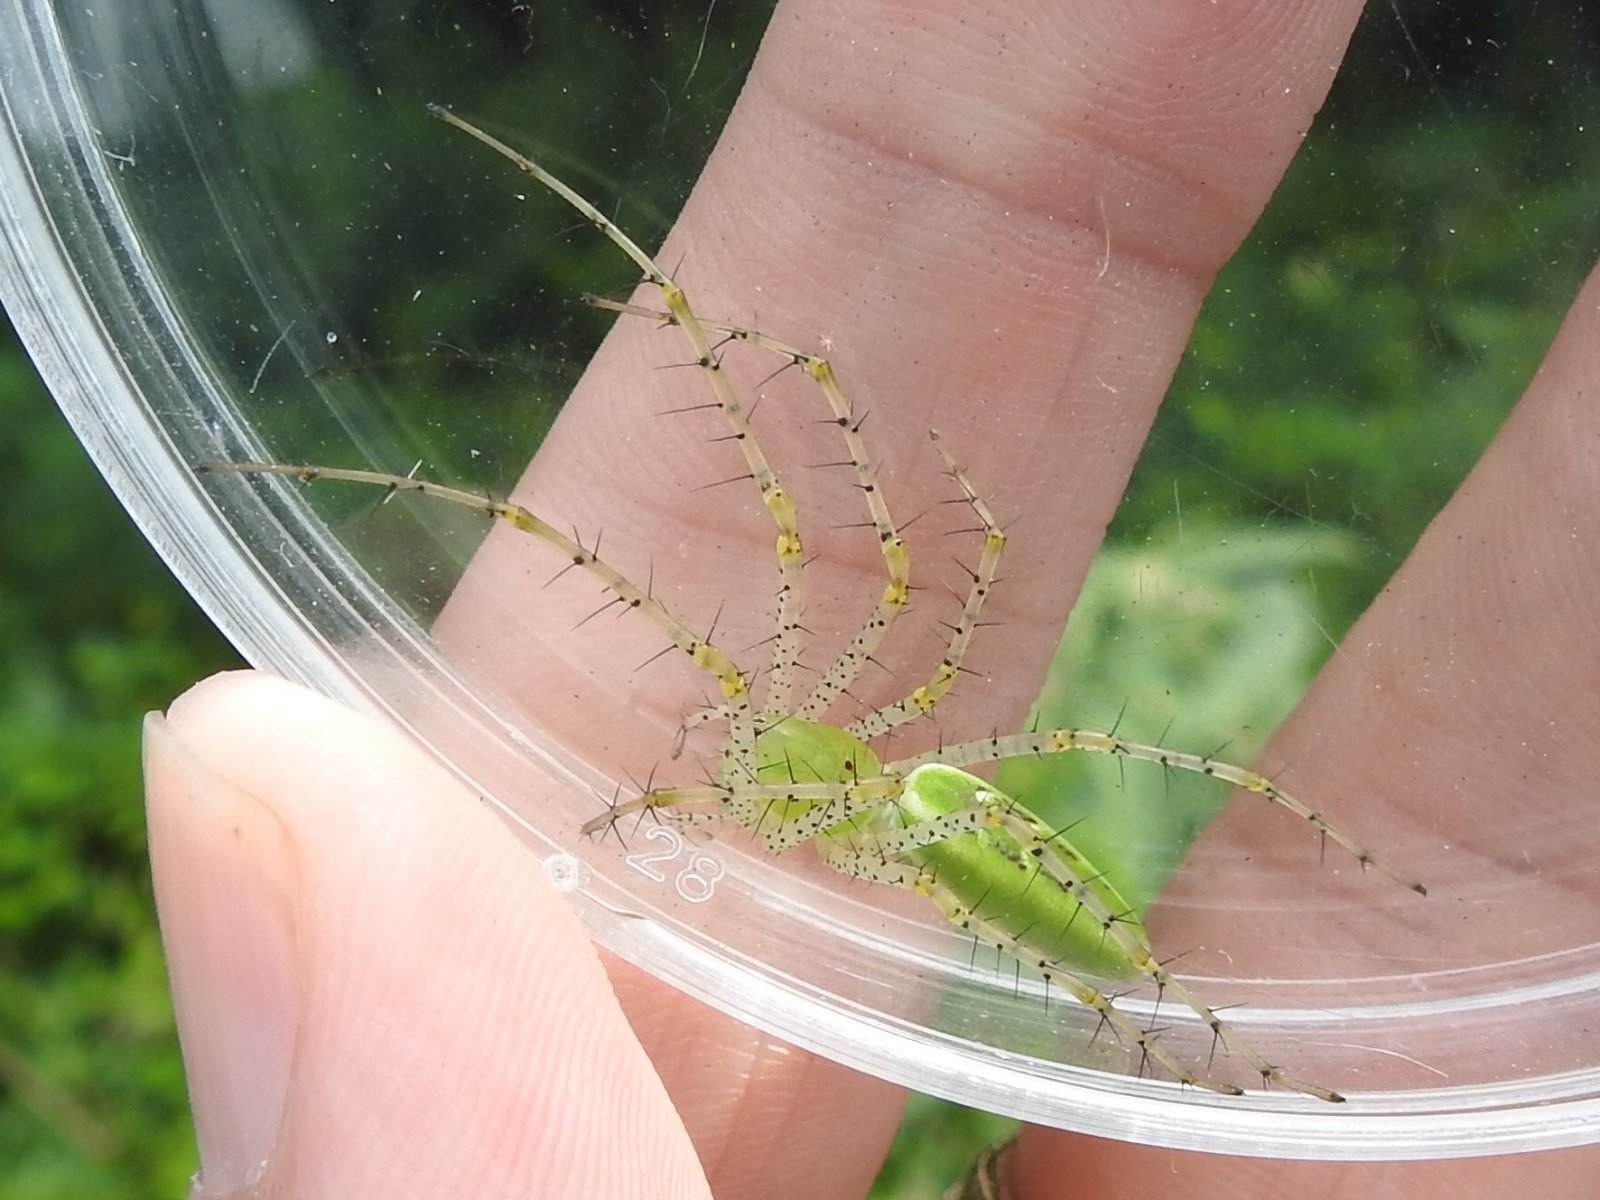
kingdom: Animalia
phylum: Arthropoda
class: Arachnida
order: Araneae
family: Oxyopidae
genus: Peucetia
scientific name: Peucetia viridans
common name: Lynx spiders
